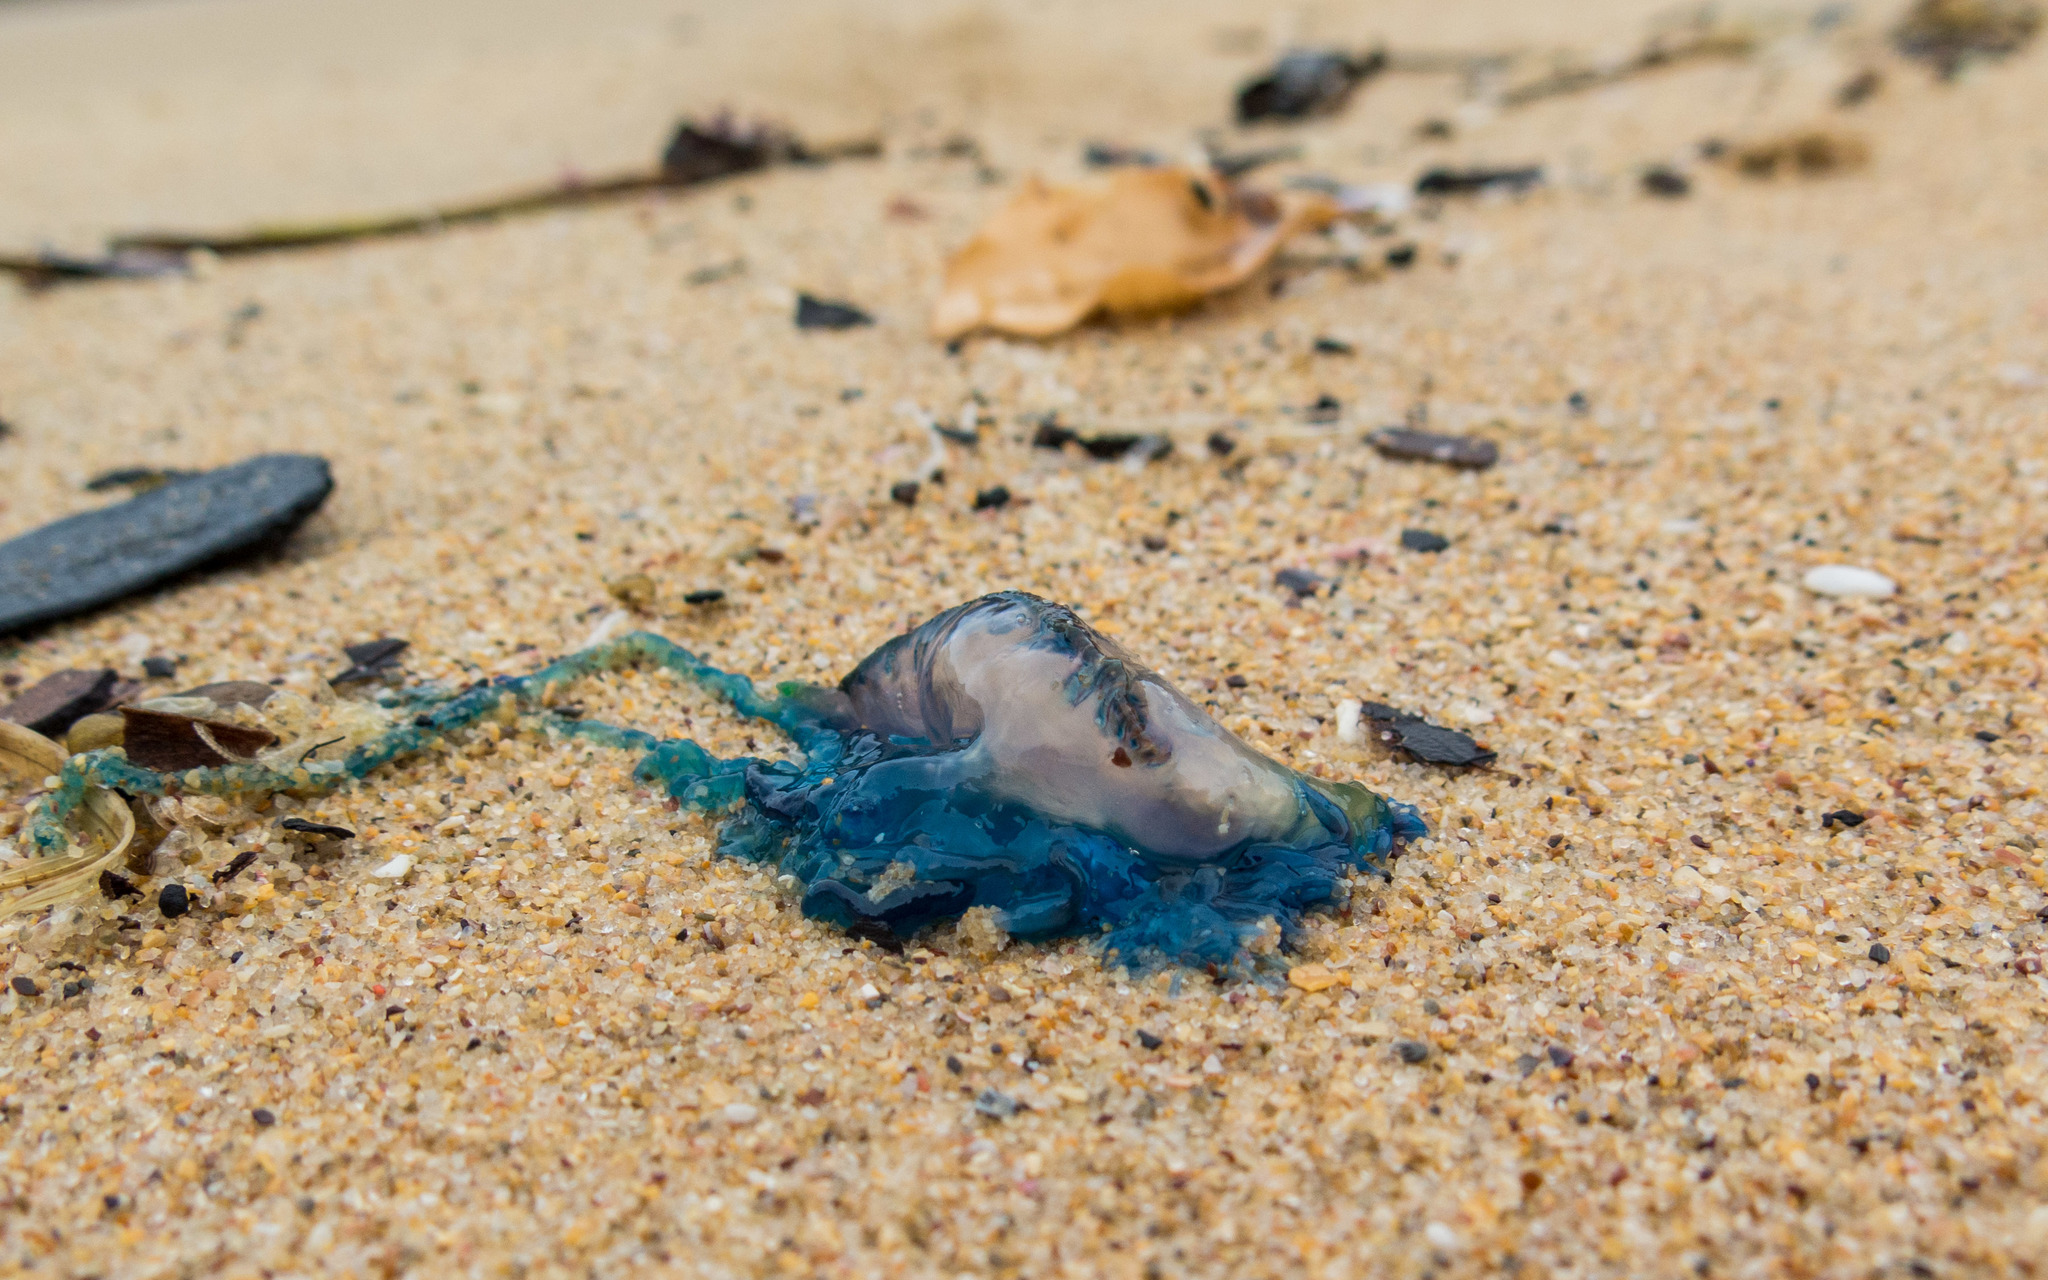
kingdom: Animalia
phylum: Cnidaria
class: Hydrozoa
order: Siphonophorae
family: Physaliidae
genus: Physalia
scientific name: Physalia physalis
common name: Portuguese man-of-war
